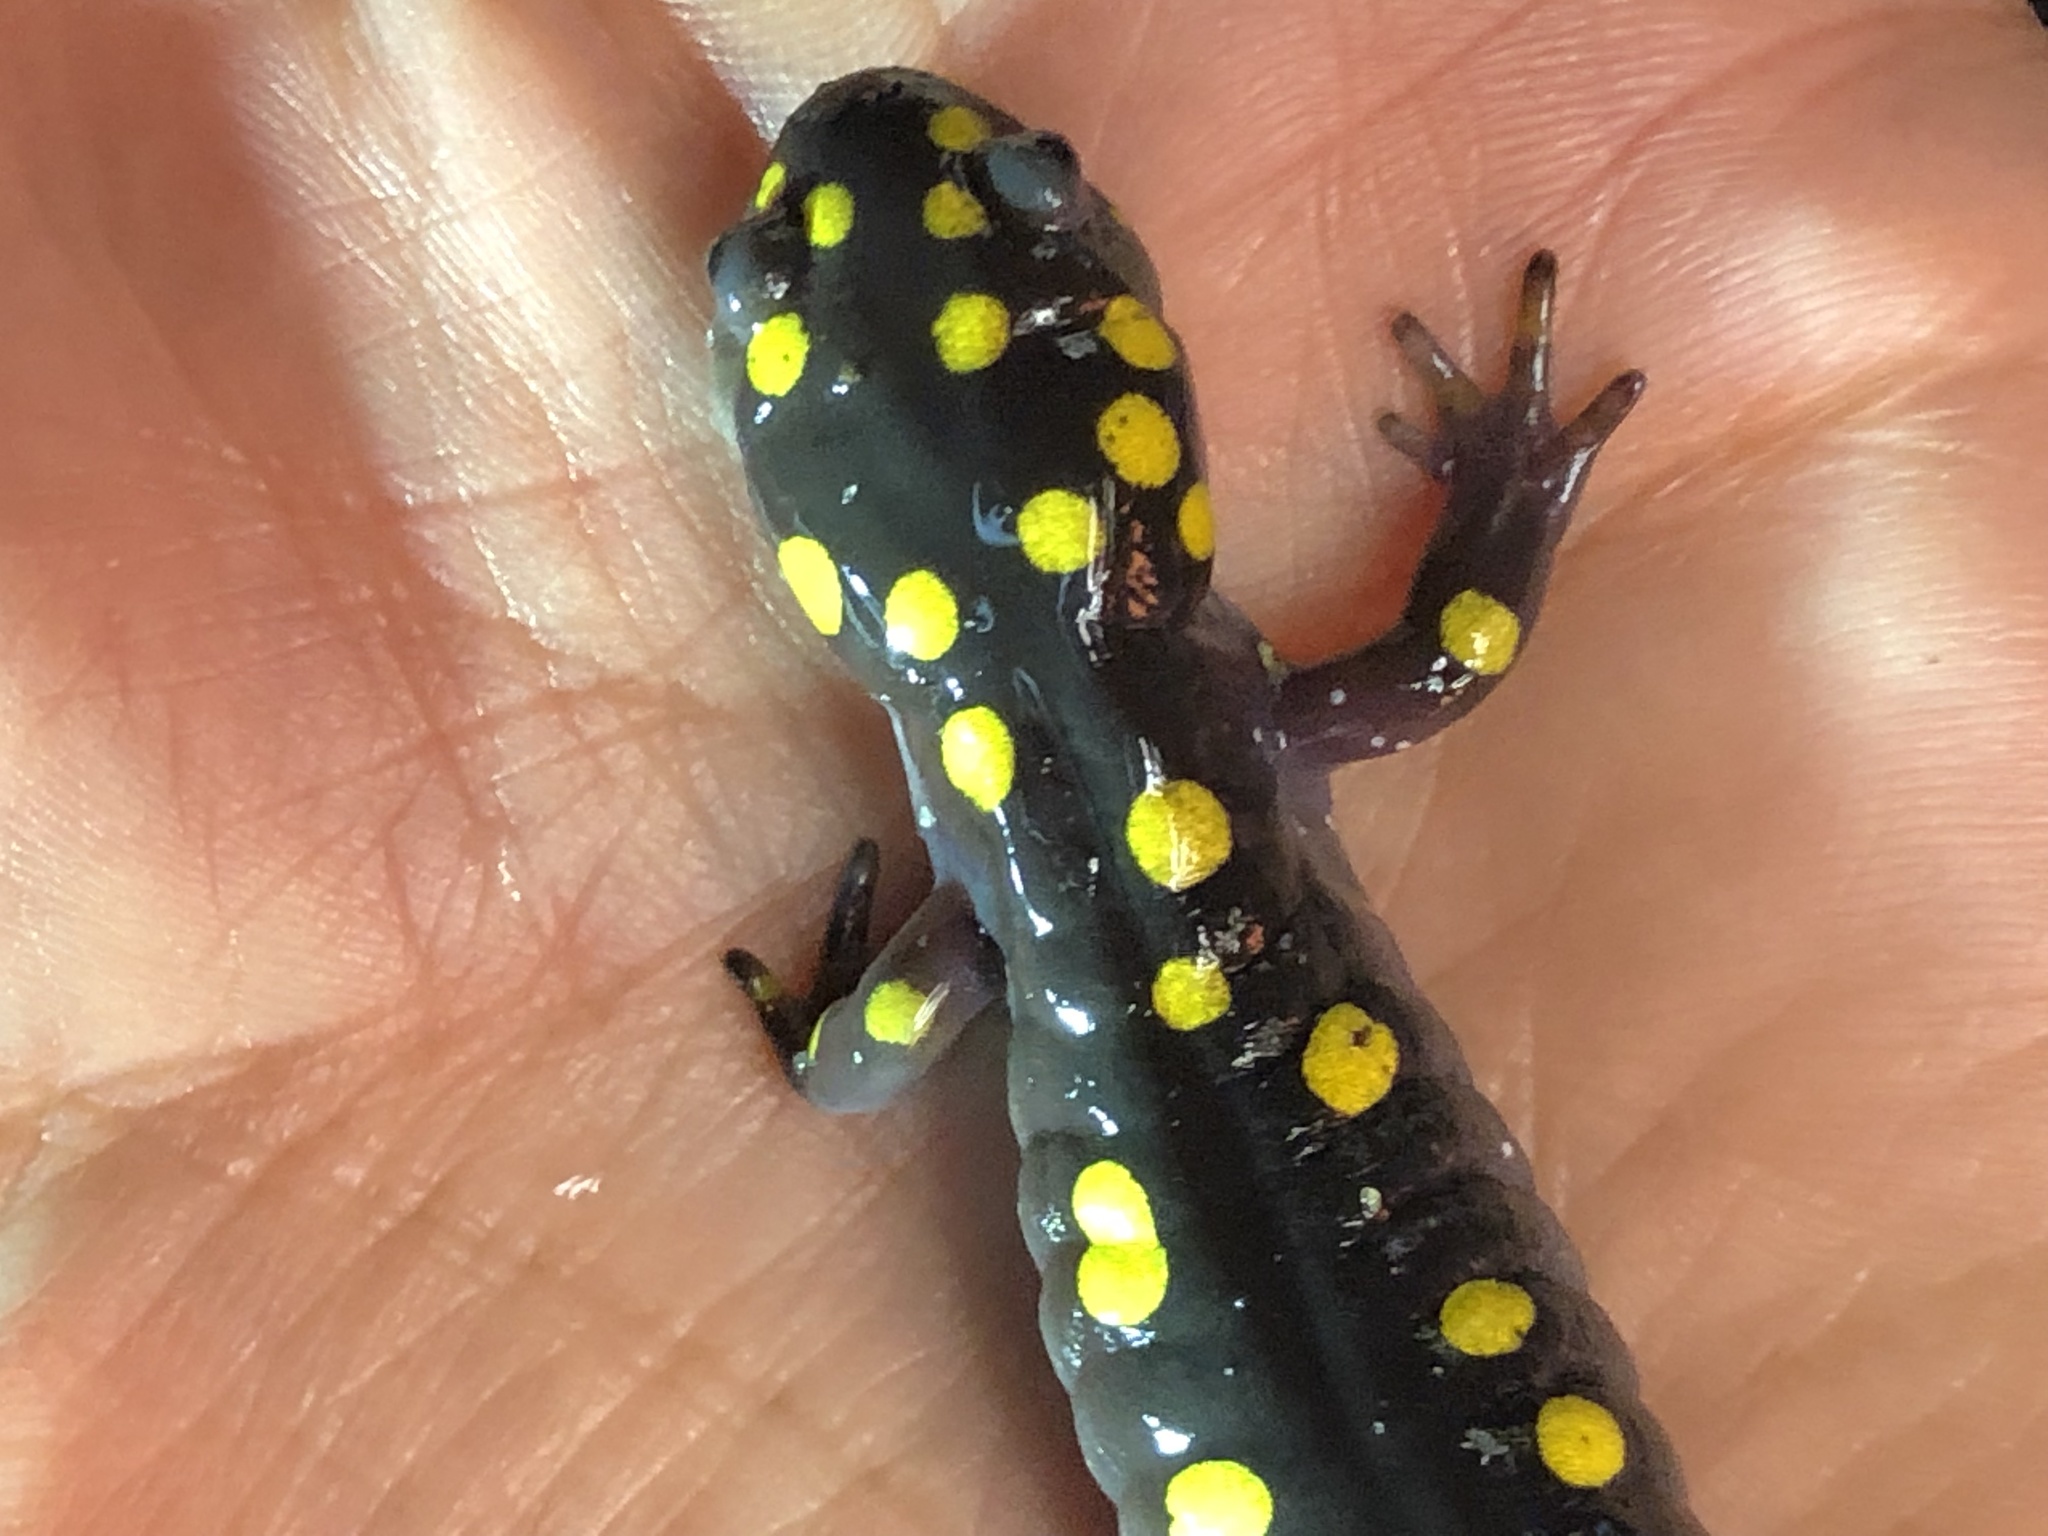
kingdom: Animalia
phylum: Chordata
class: Amphibia
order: Caudata
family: Ambystomatidae
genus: Ambystoma
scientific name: Ambystoma maculatum
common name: Spotted salamander
